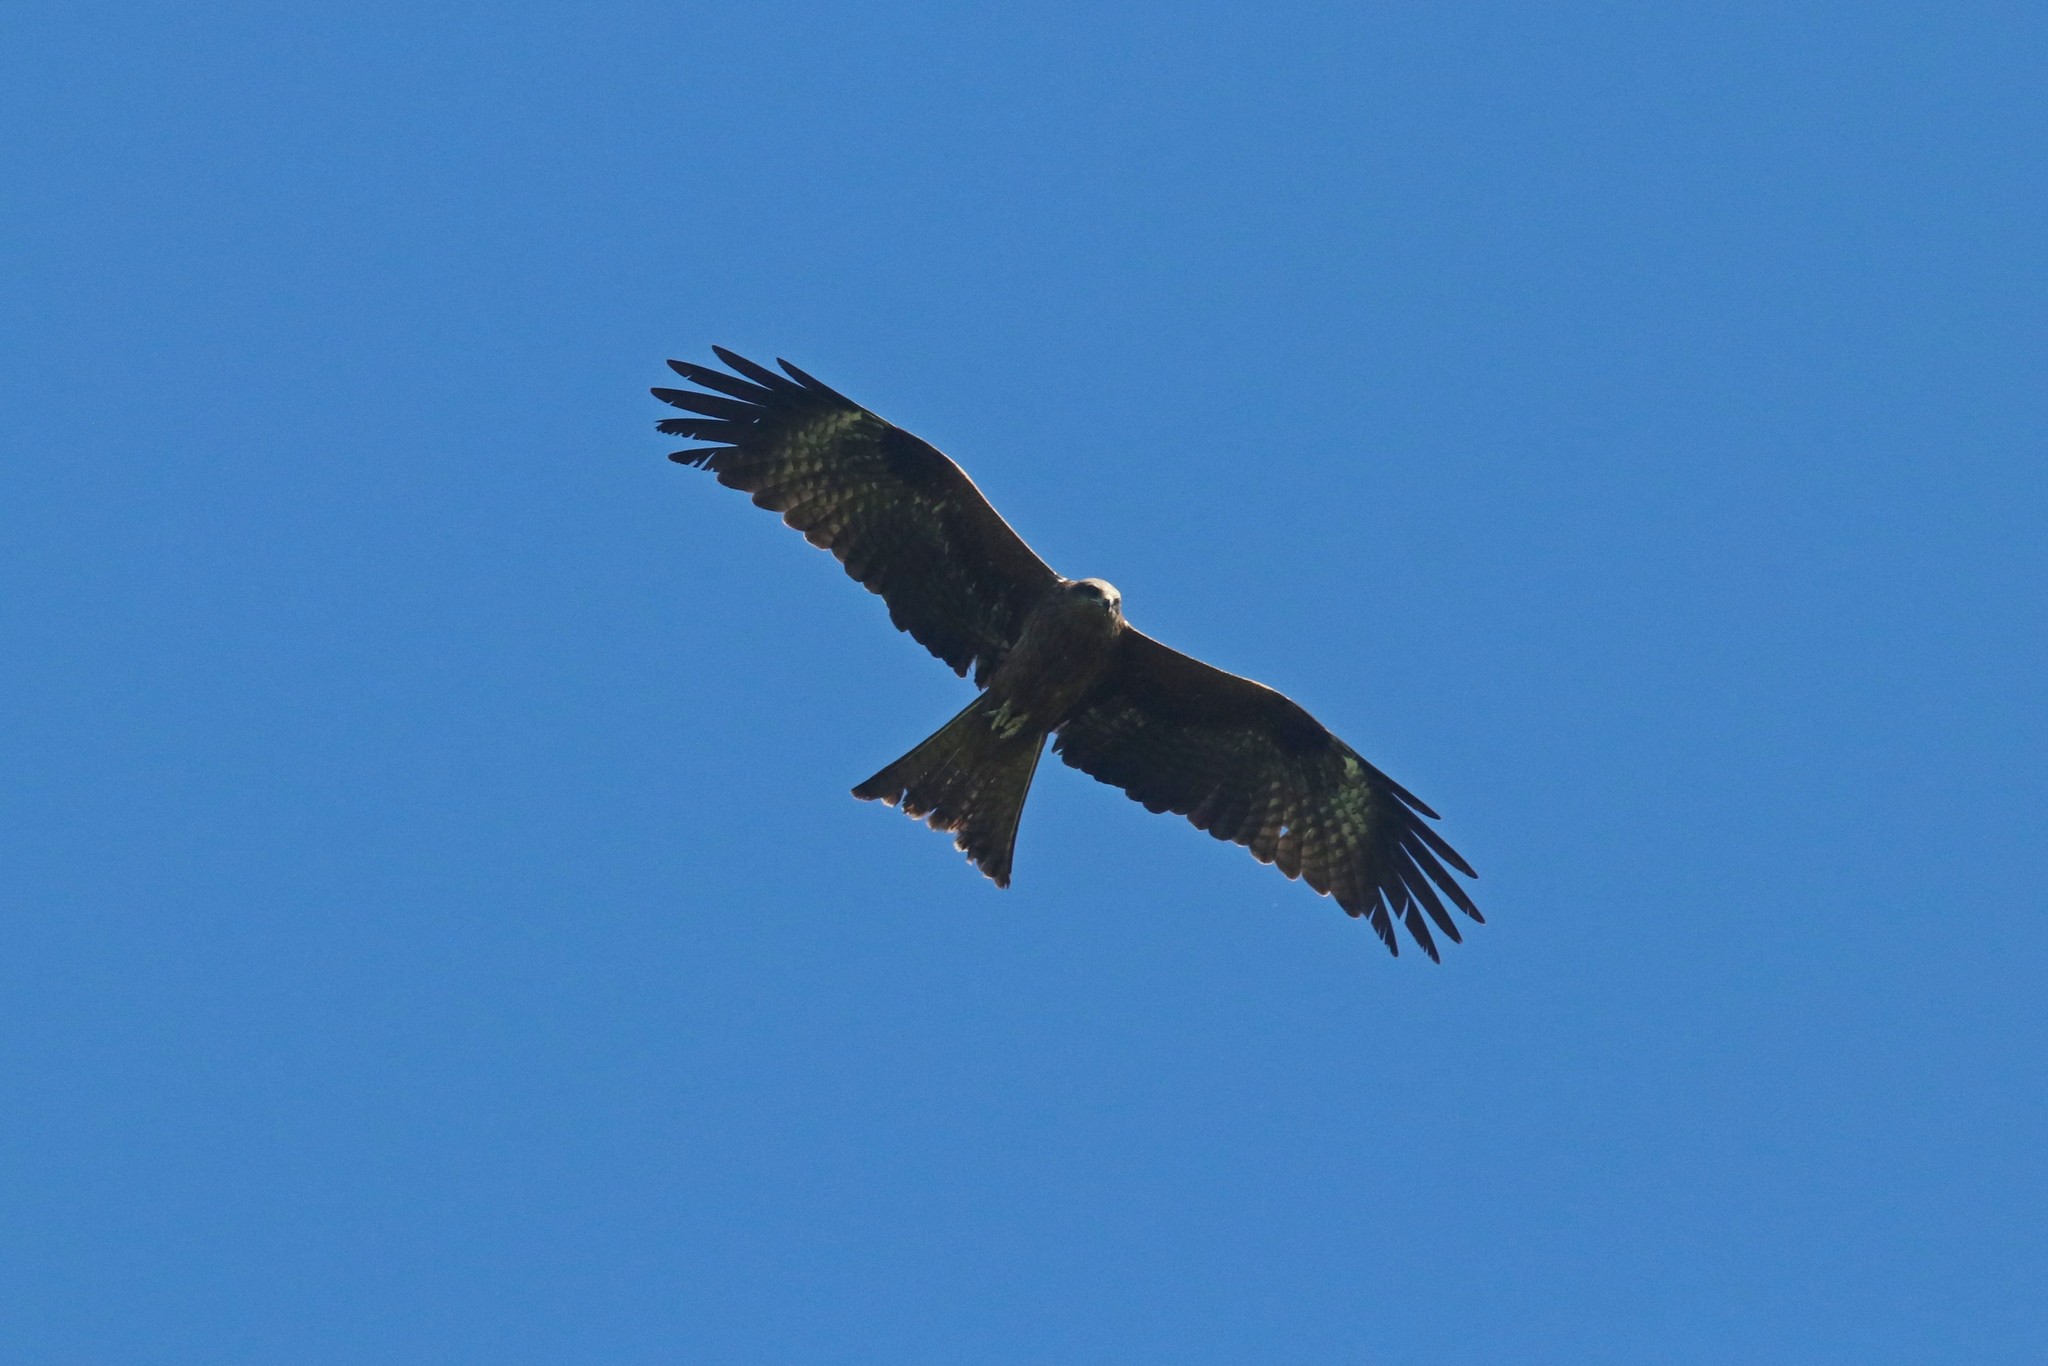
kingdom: Animalia
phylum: Chordata
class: Aves
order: Accipitriformes
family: Accipitridae
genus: Milvus
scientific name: Milvus migrans
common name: Black kite
